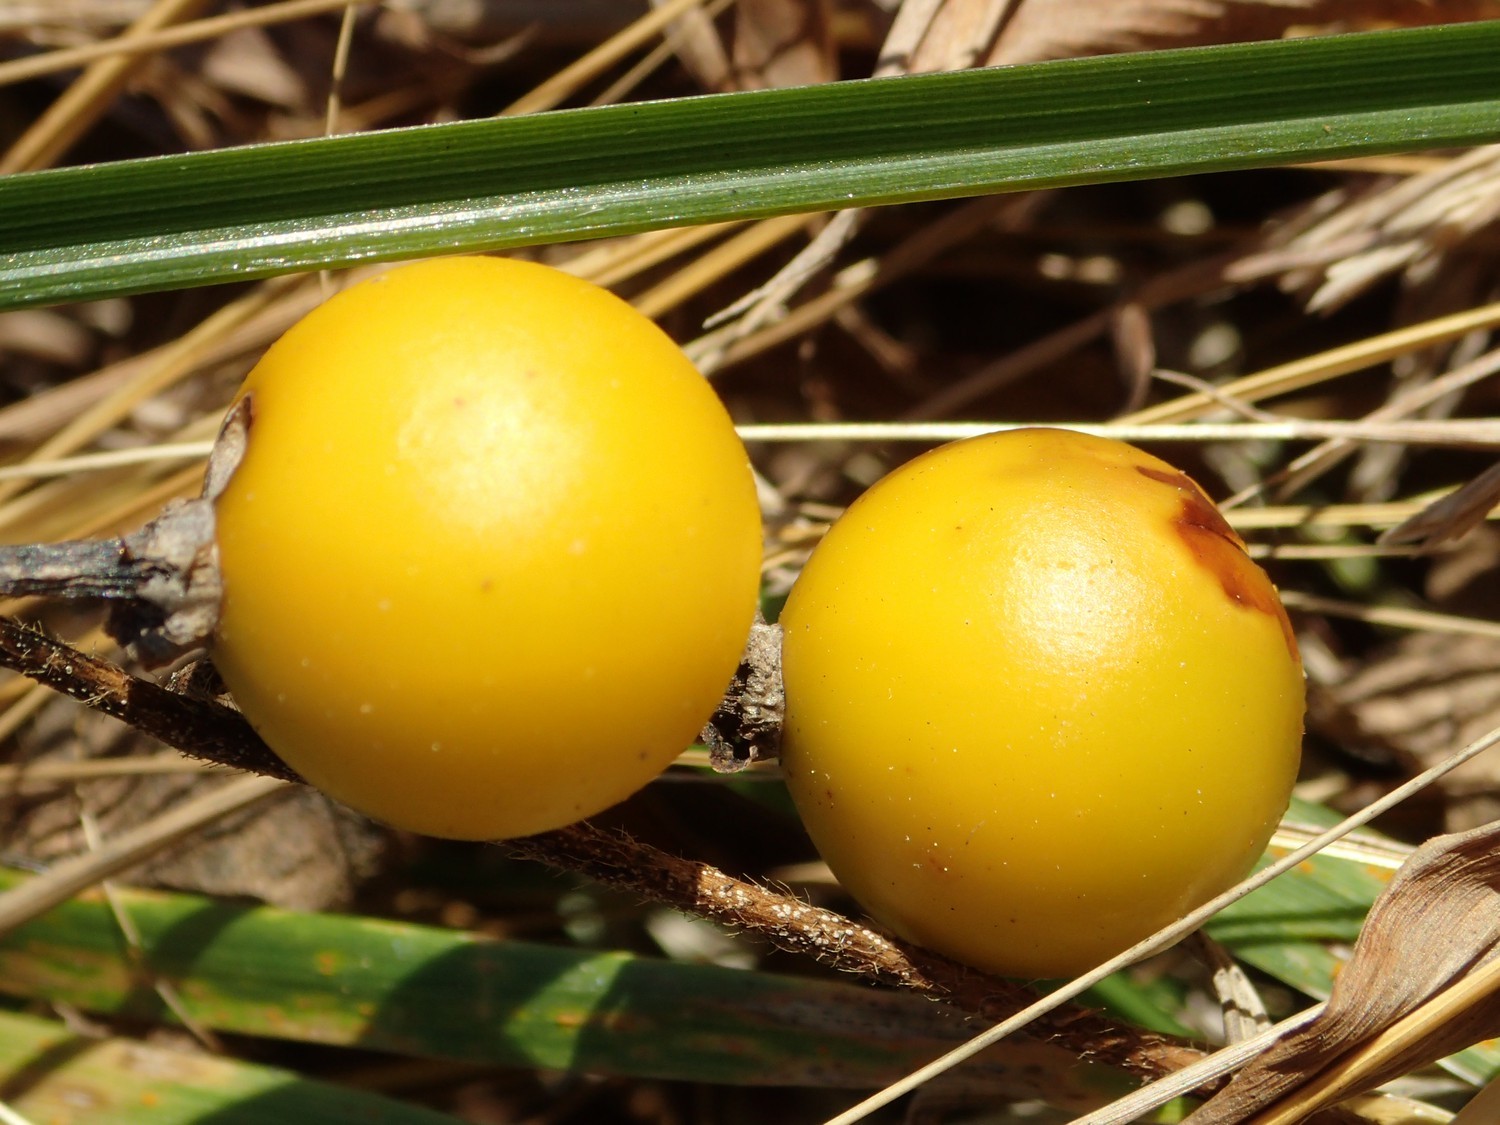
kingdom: Plantae
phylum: Tracheophyta
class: Magnoliopsida
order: Solanales
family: Solanaceae
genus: Solanum
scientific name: Solanum carolinense
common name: Horse-nettle
